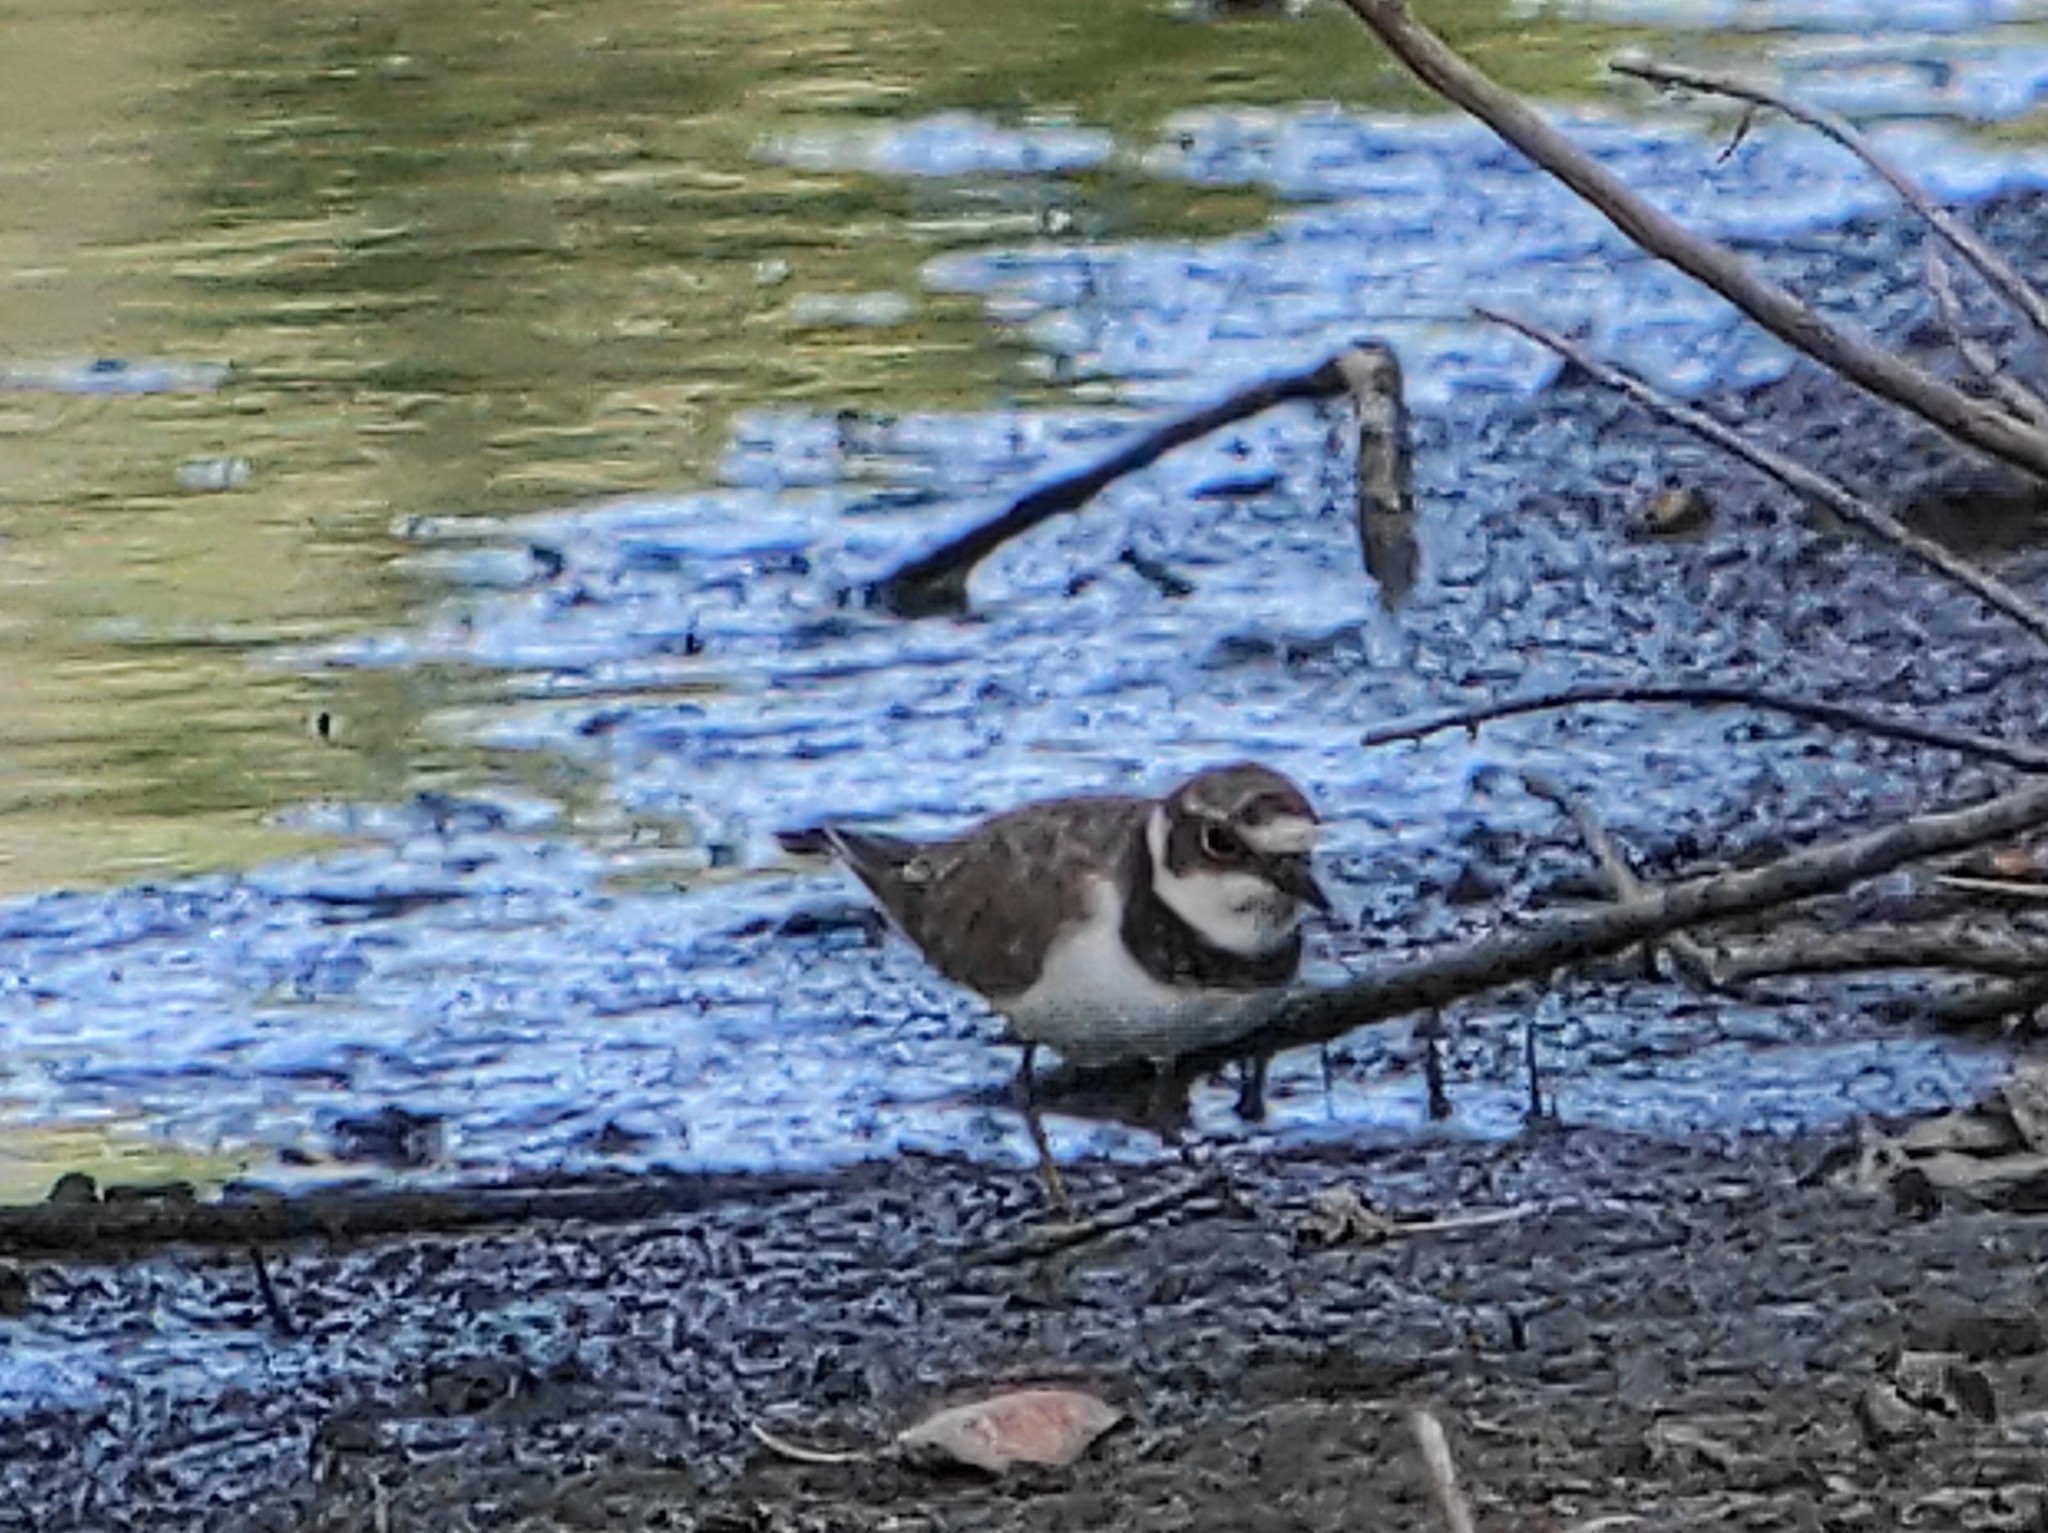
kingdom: Animalia
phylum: Chordata
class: Aves
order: Charadriiformes
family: Charadriidae
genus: Charadrius
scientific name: Charadrius dubius
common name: Little ringed plover
